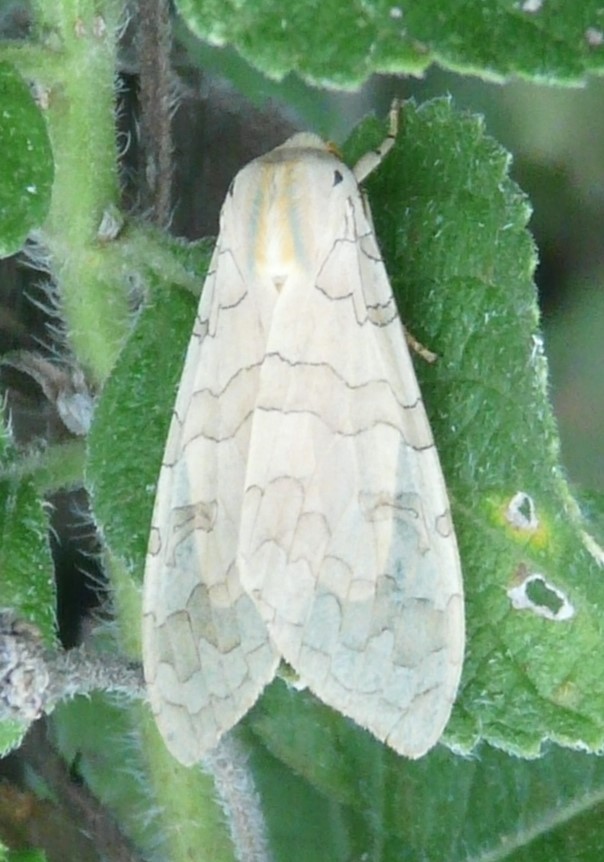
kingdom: Animalia
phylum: Arthropoda
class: Insecta
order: Lepidoptera
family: Erebidae
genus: Halysidota
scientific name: Halysidota
